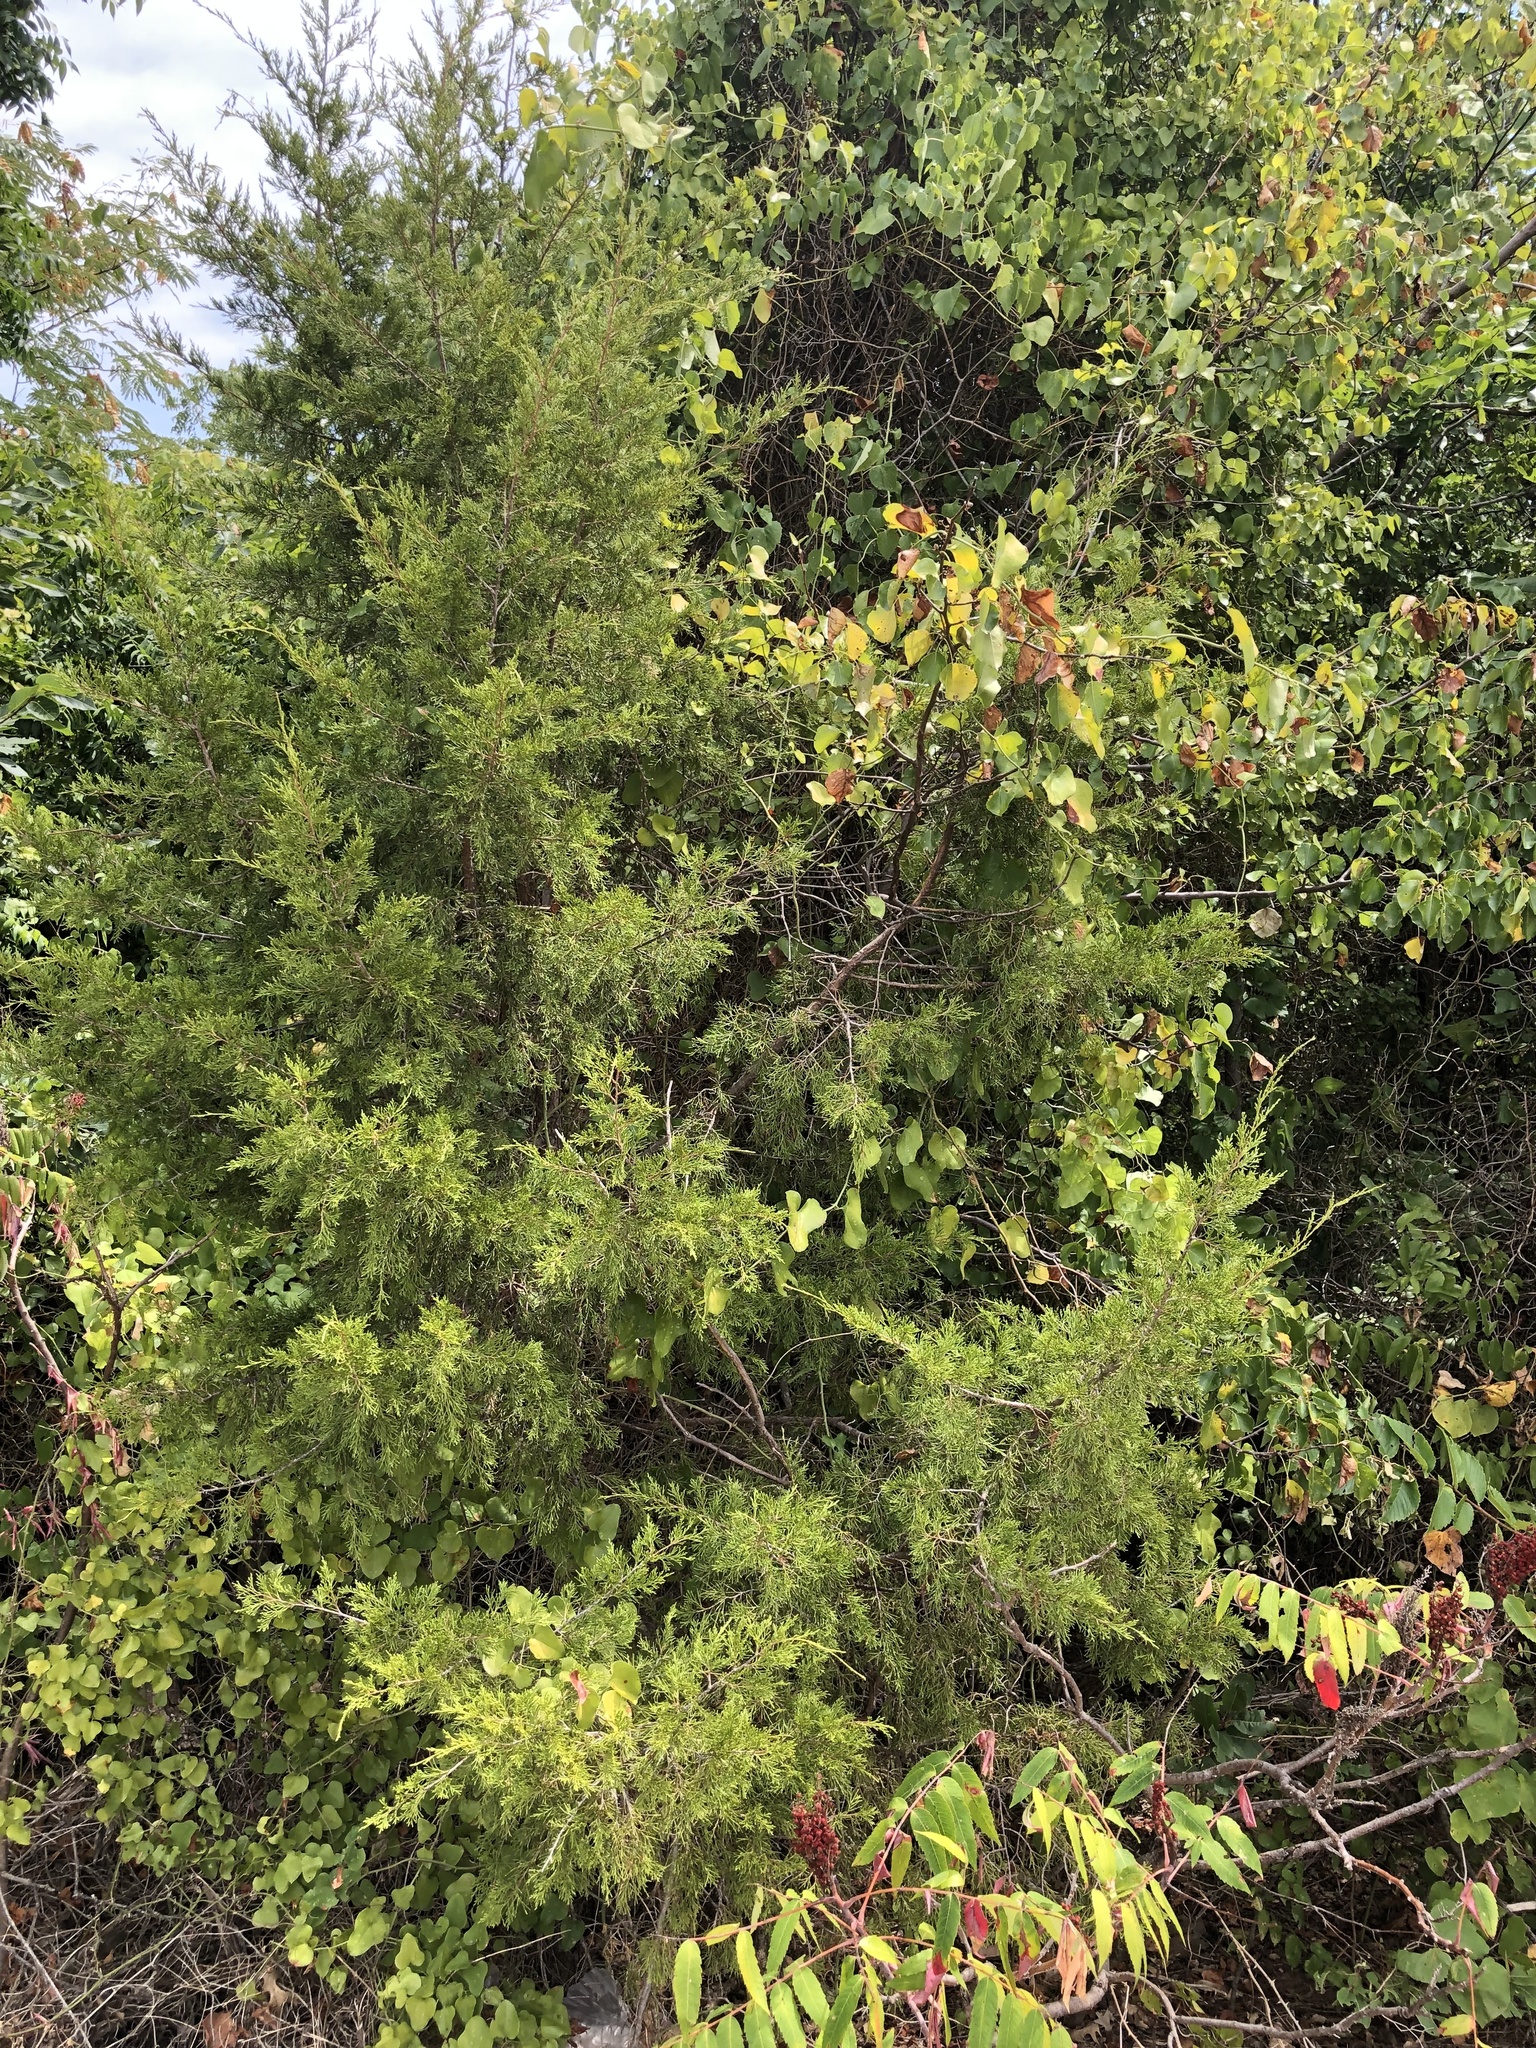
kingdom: Plantae
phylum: Tracheophyta
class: Pinopsida
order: Pinales
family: Cupressaceae
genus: Juniperus
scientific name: Juniperus virginiana
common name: Red juniper
